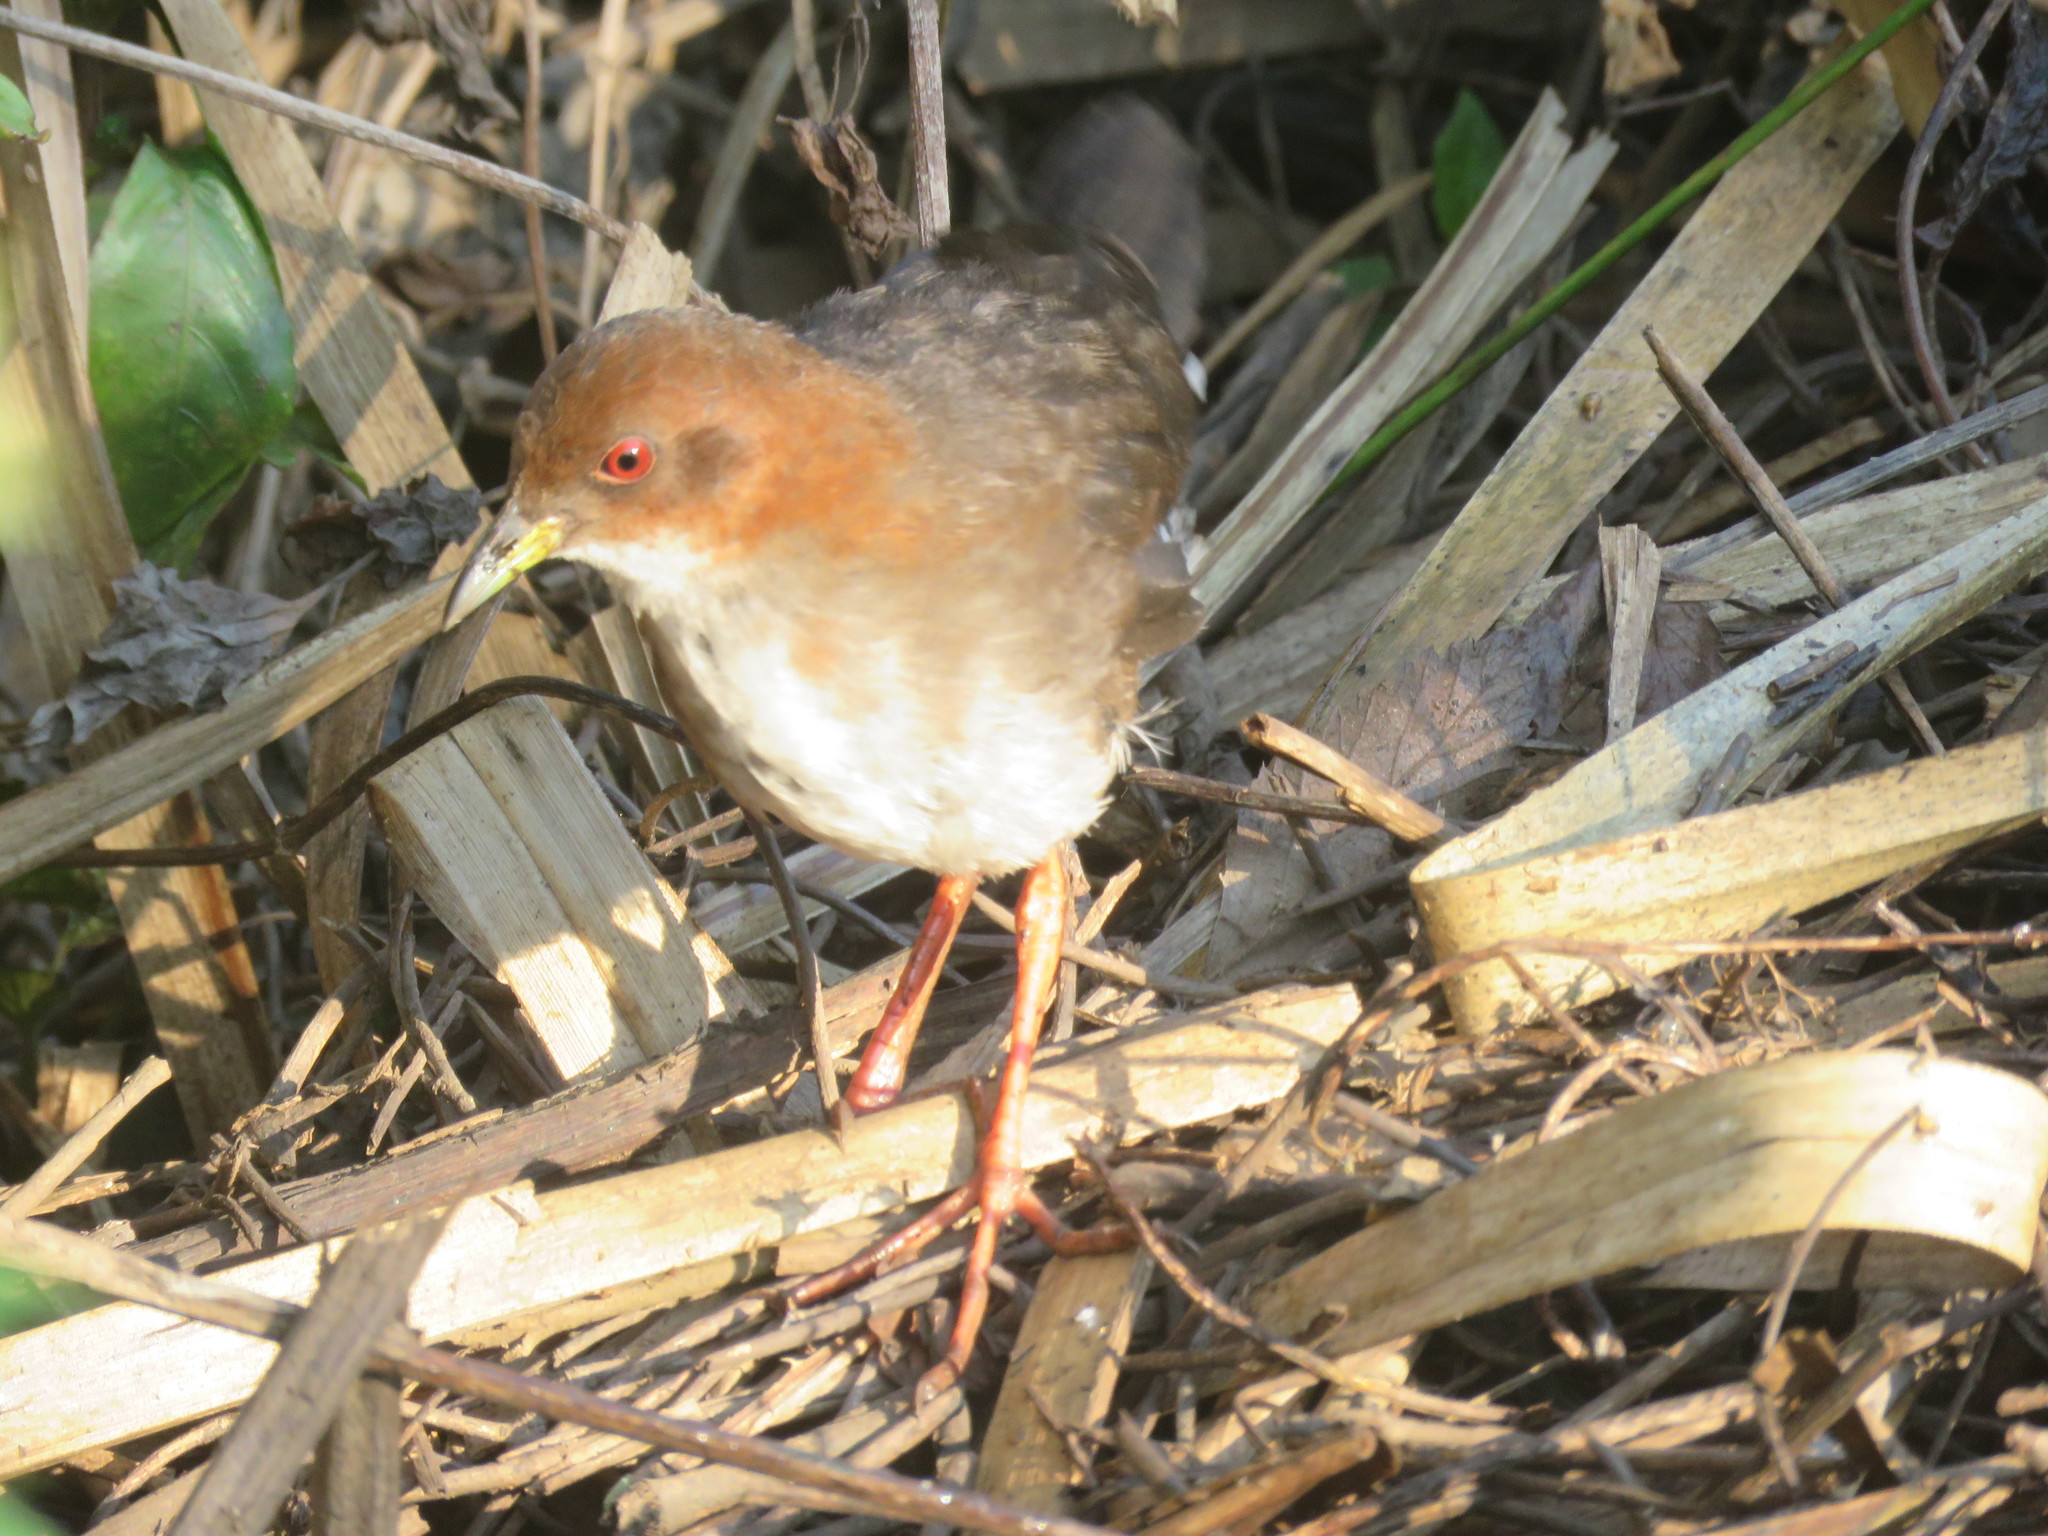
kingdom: Animalia
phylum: Chordata
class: Aves
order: Gruiformes
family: Rallidae
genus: Laterallus
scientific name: Laterallus leucopyrrhus
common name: Red-and-white crake
